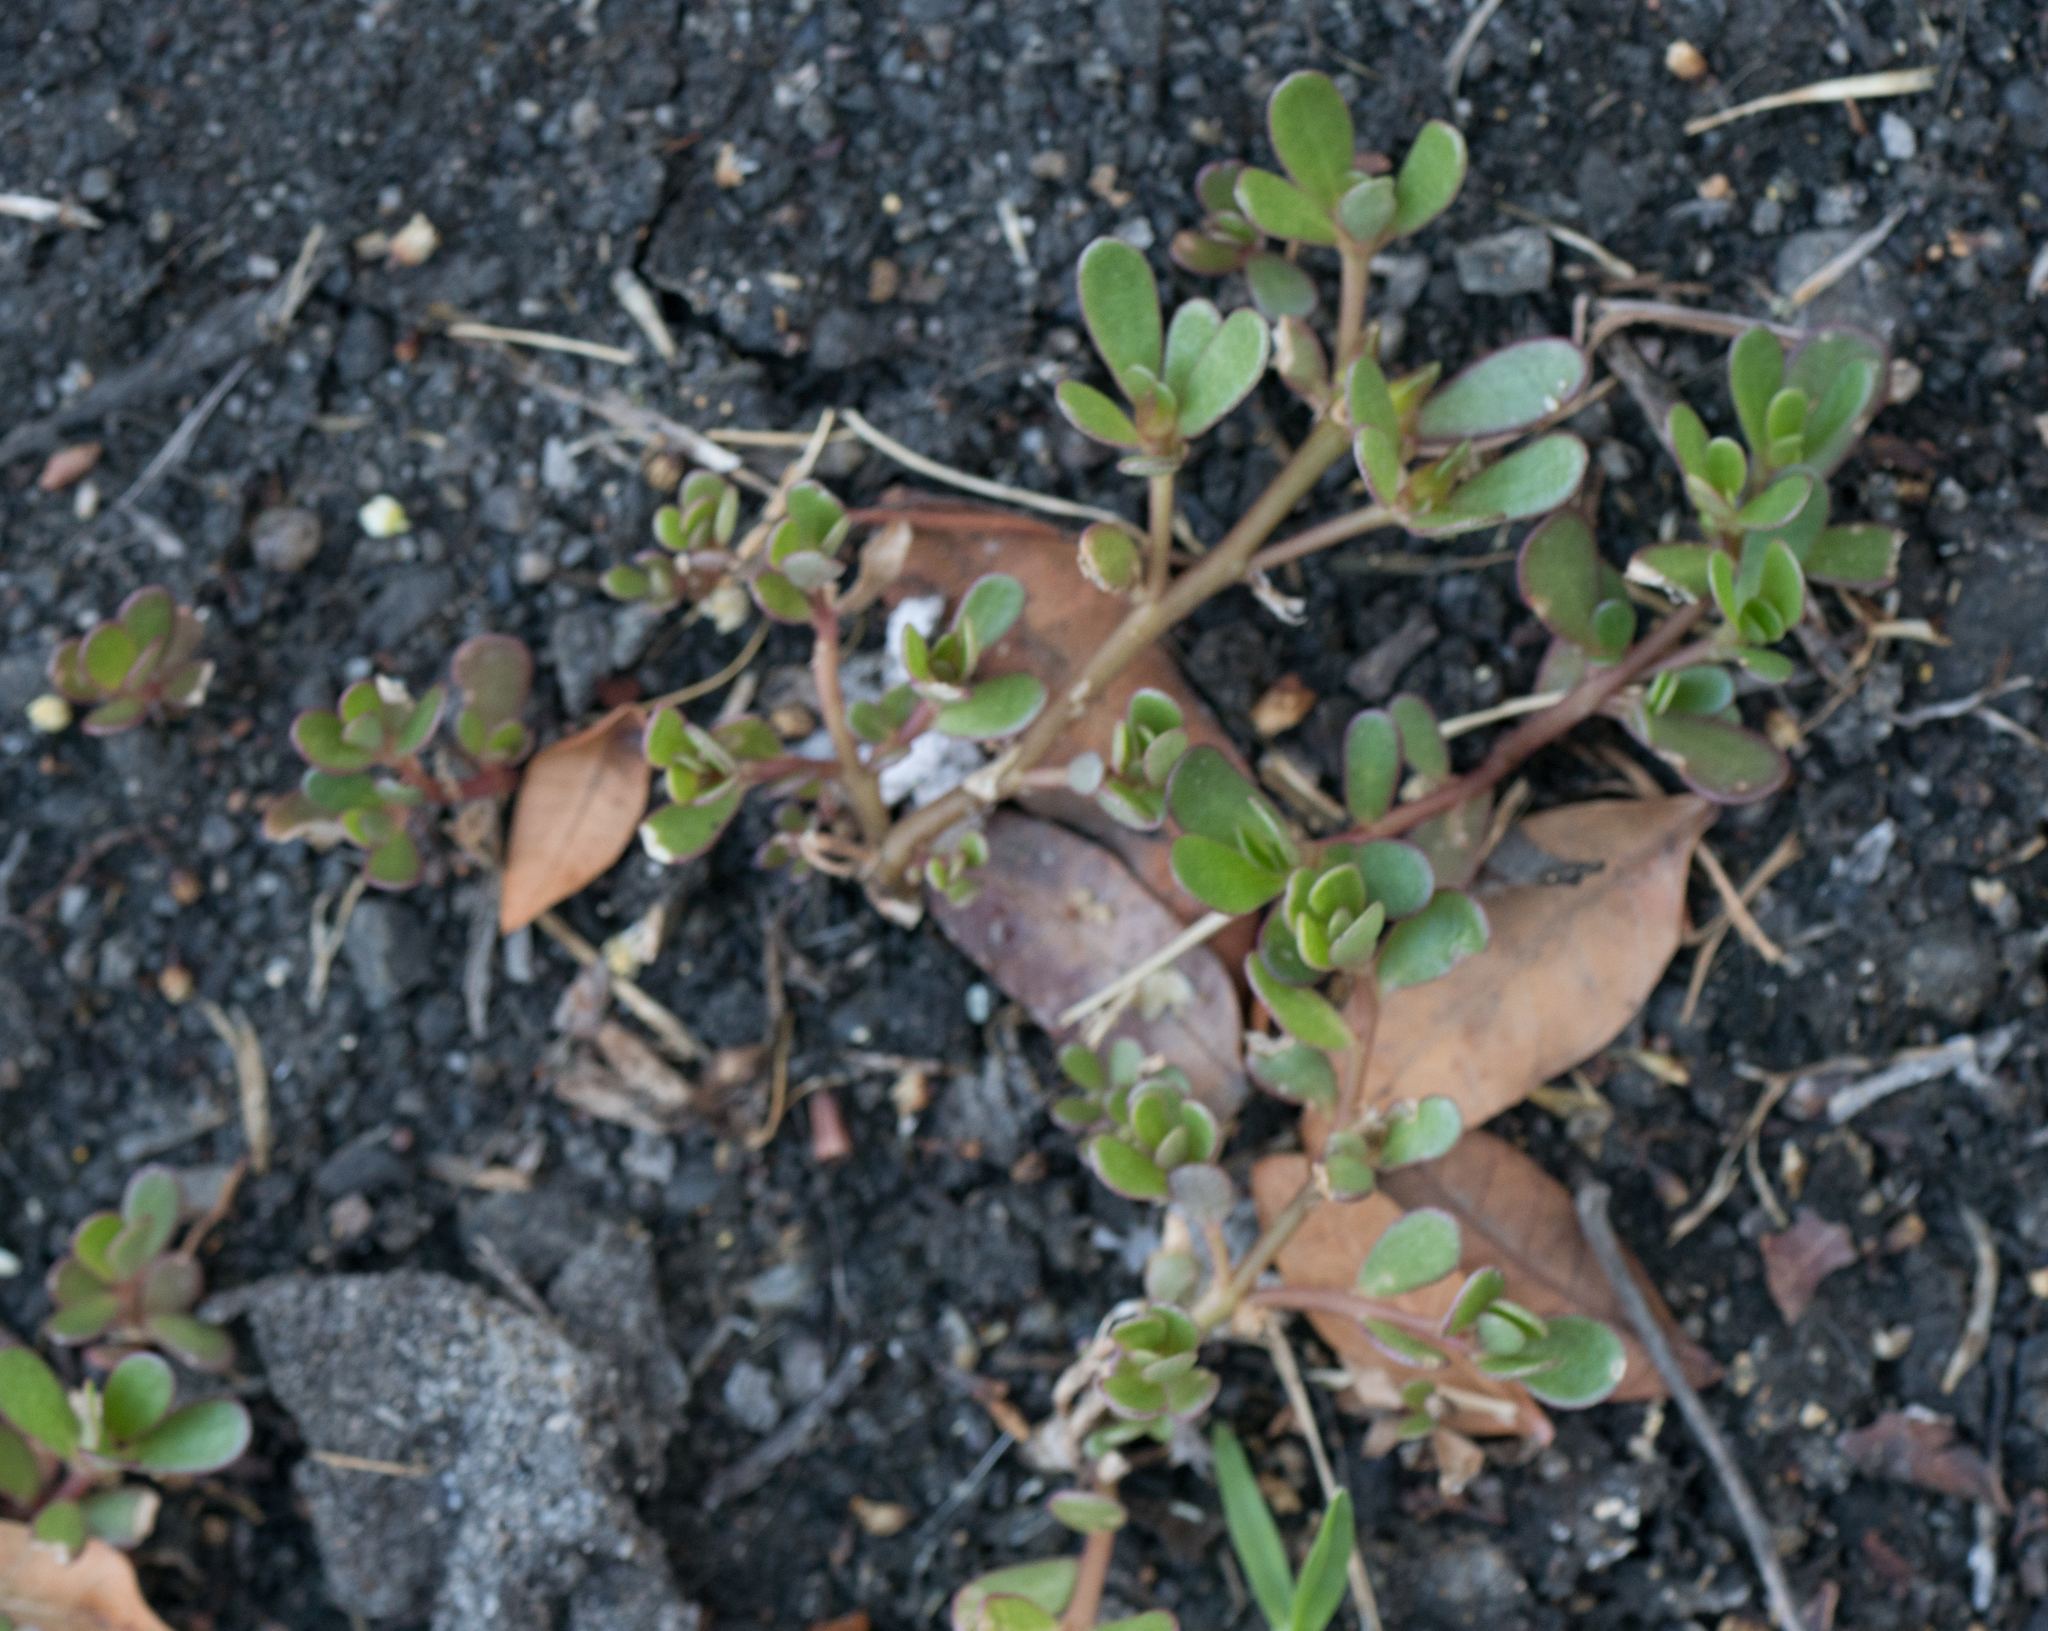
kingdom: Plantae
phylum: Tracheophyta
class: Magnoliopsida
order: Caryophyllales
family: Portulacaceae
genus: Portulaca
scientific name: Portulaca oleracea
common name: Common purslane
